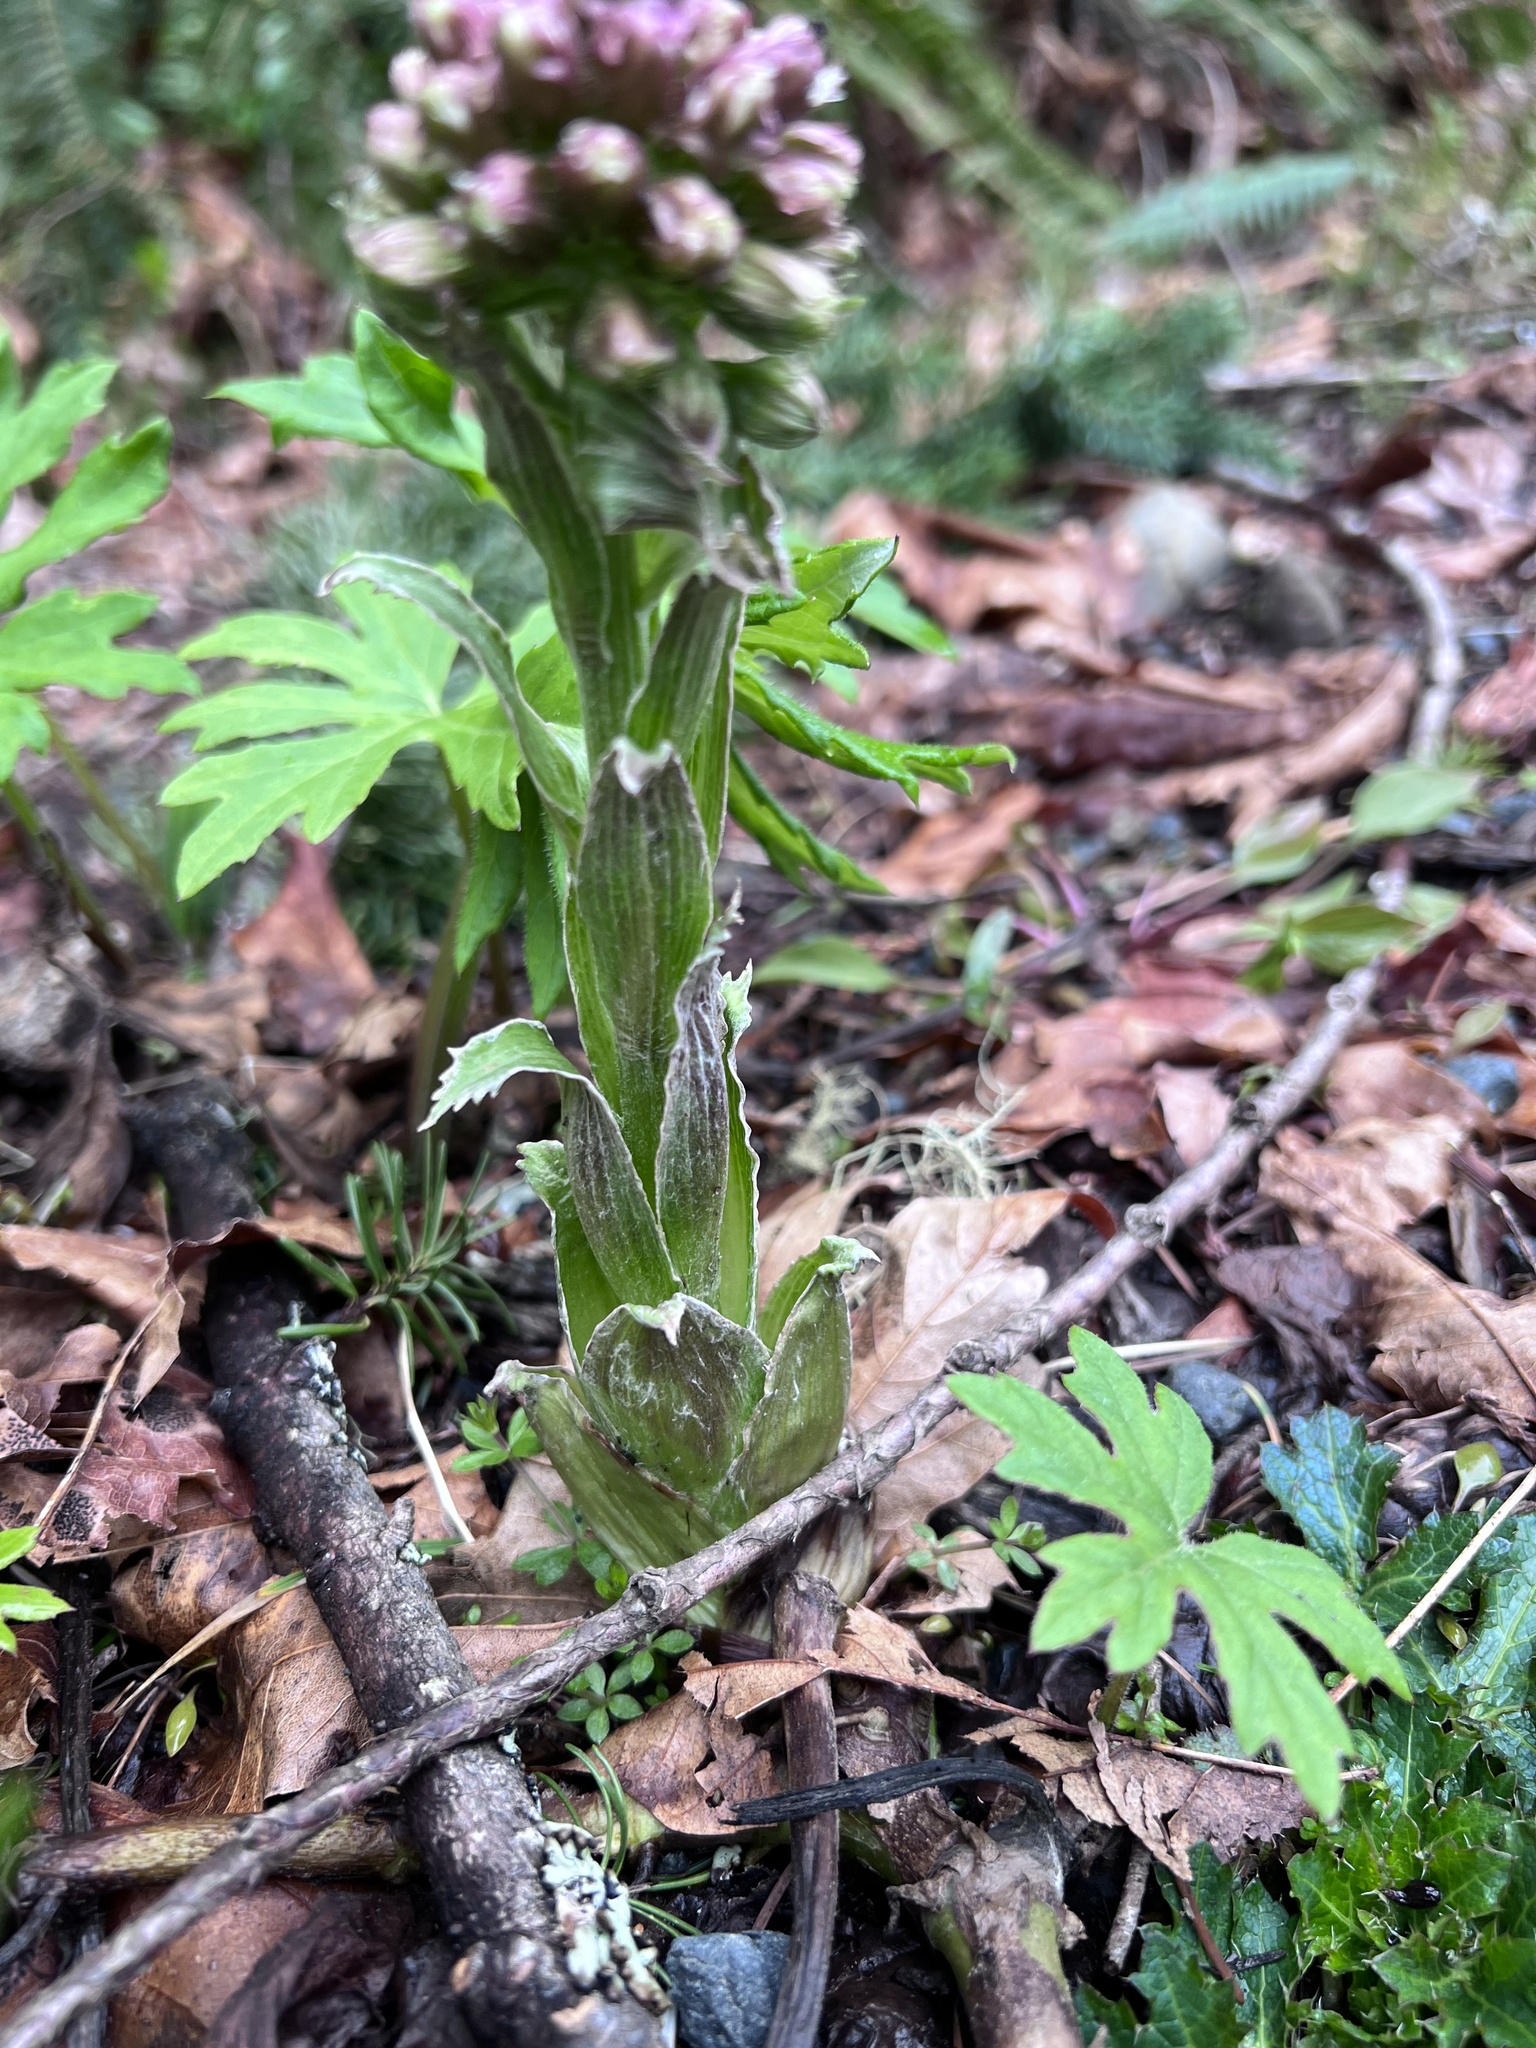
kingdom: Plantae
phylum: Tracheophyta
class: Magnoliopsida
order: Asterales
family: Asteraceae
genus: Petasites
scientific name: Petasites frigidus
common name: Arctic butterbur
